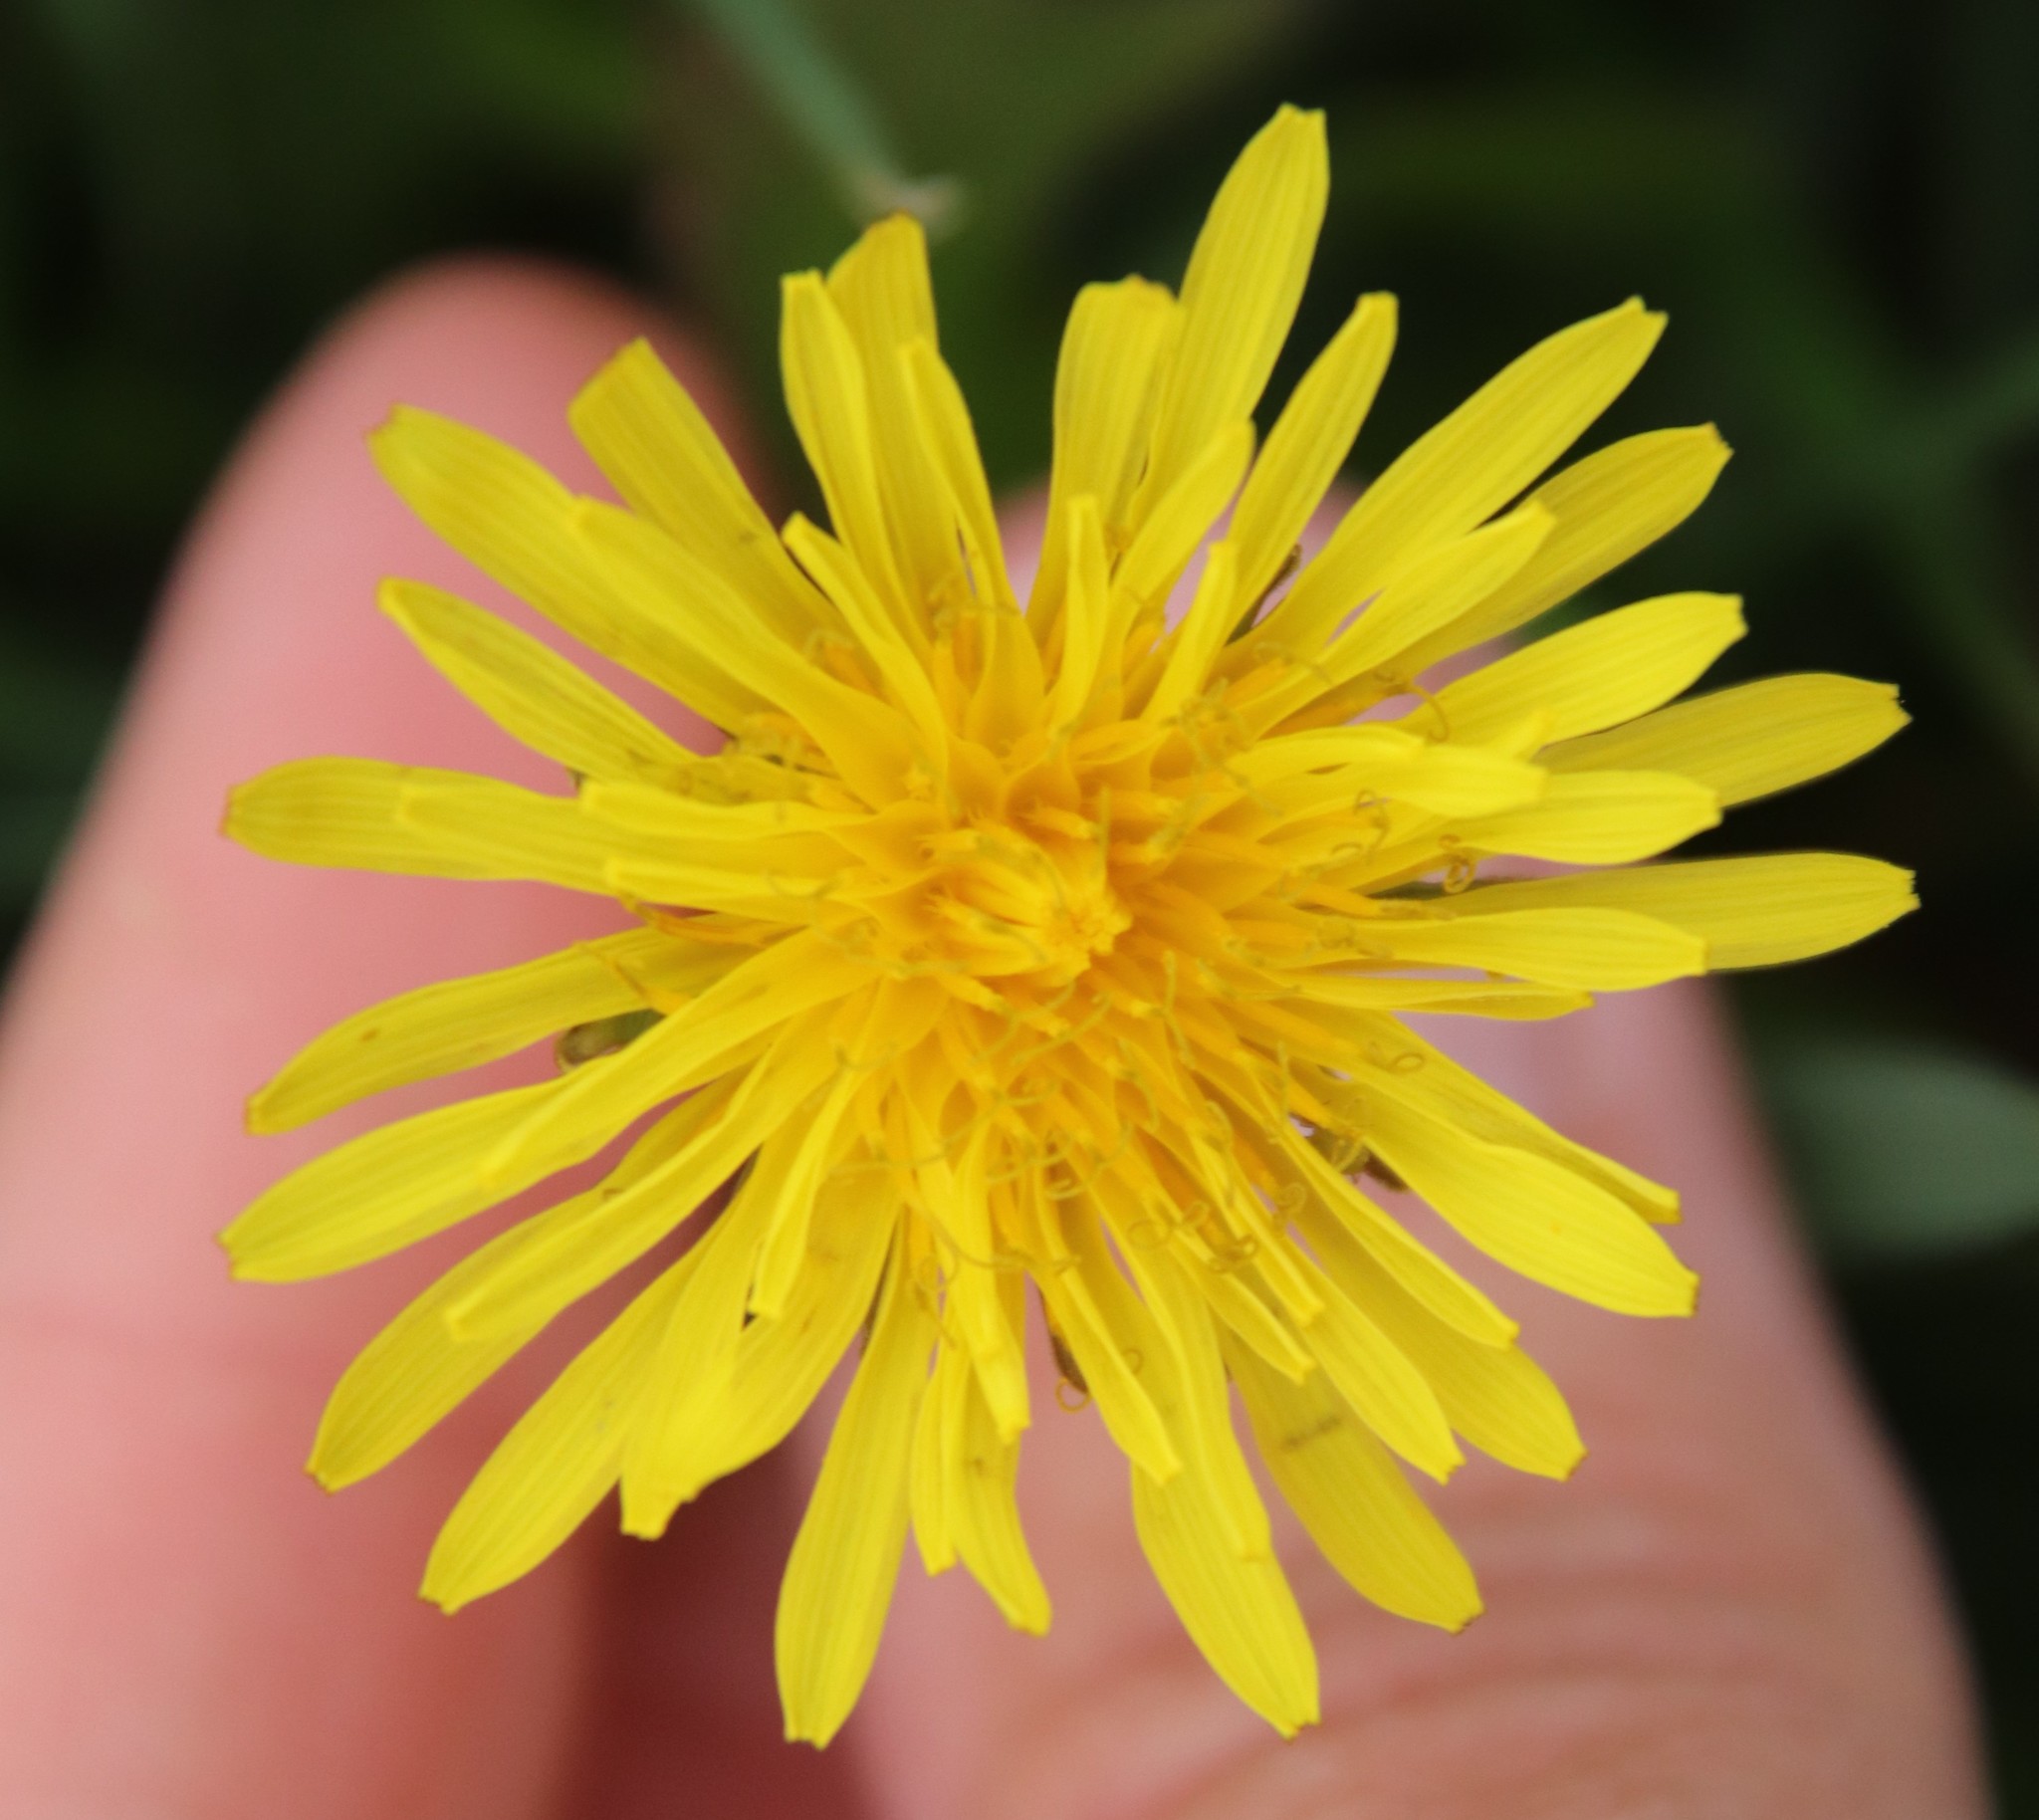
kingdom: Plantae
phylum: Tracheophyta
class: Magnoliopsida
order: Asterales
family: Asteraceae
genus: Taraxacum
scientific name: Taraxacum officinale
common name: Common dandelion
